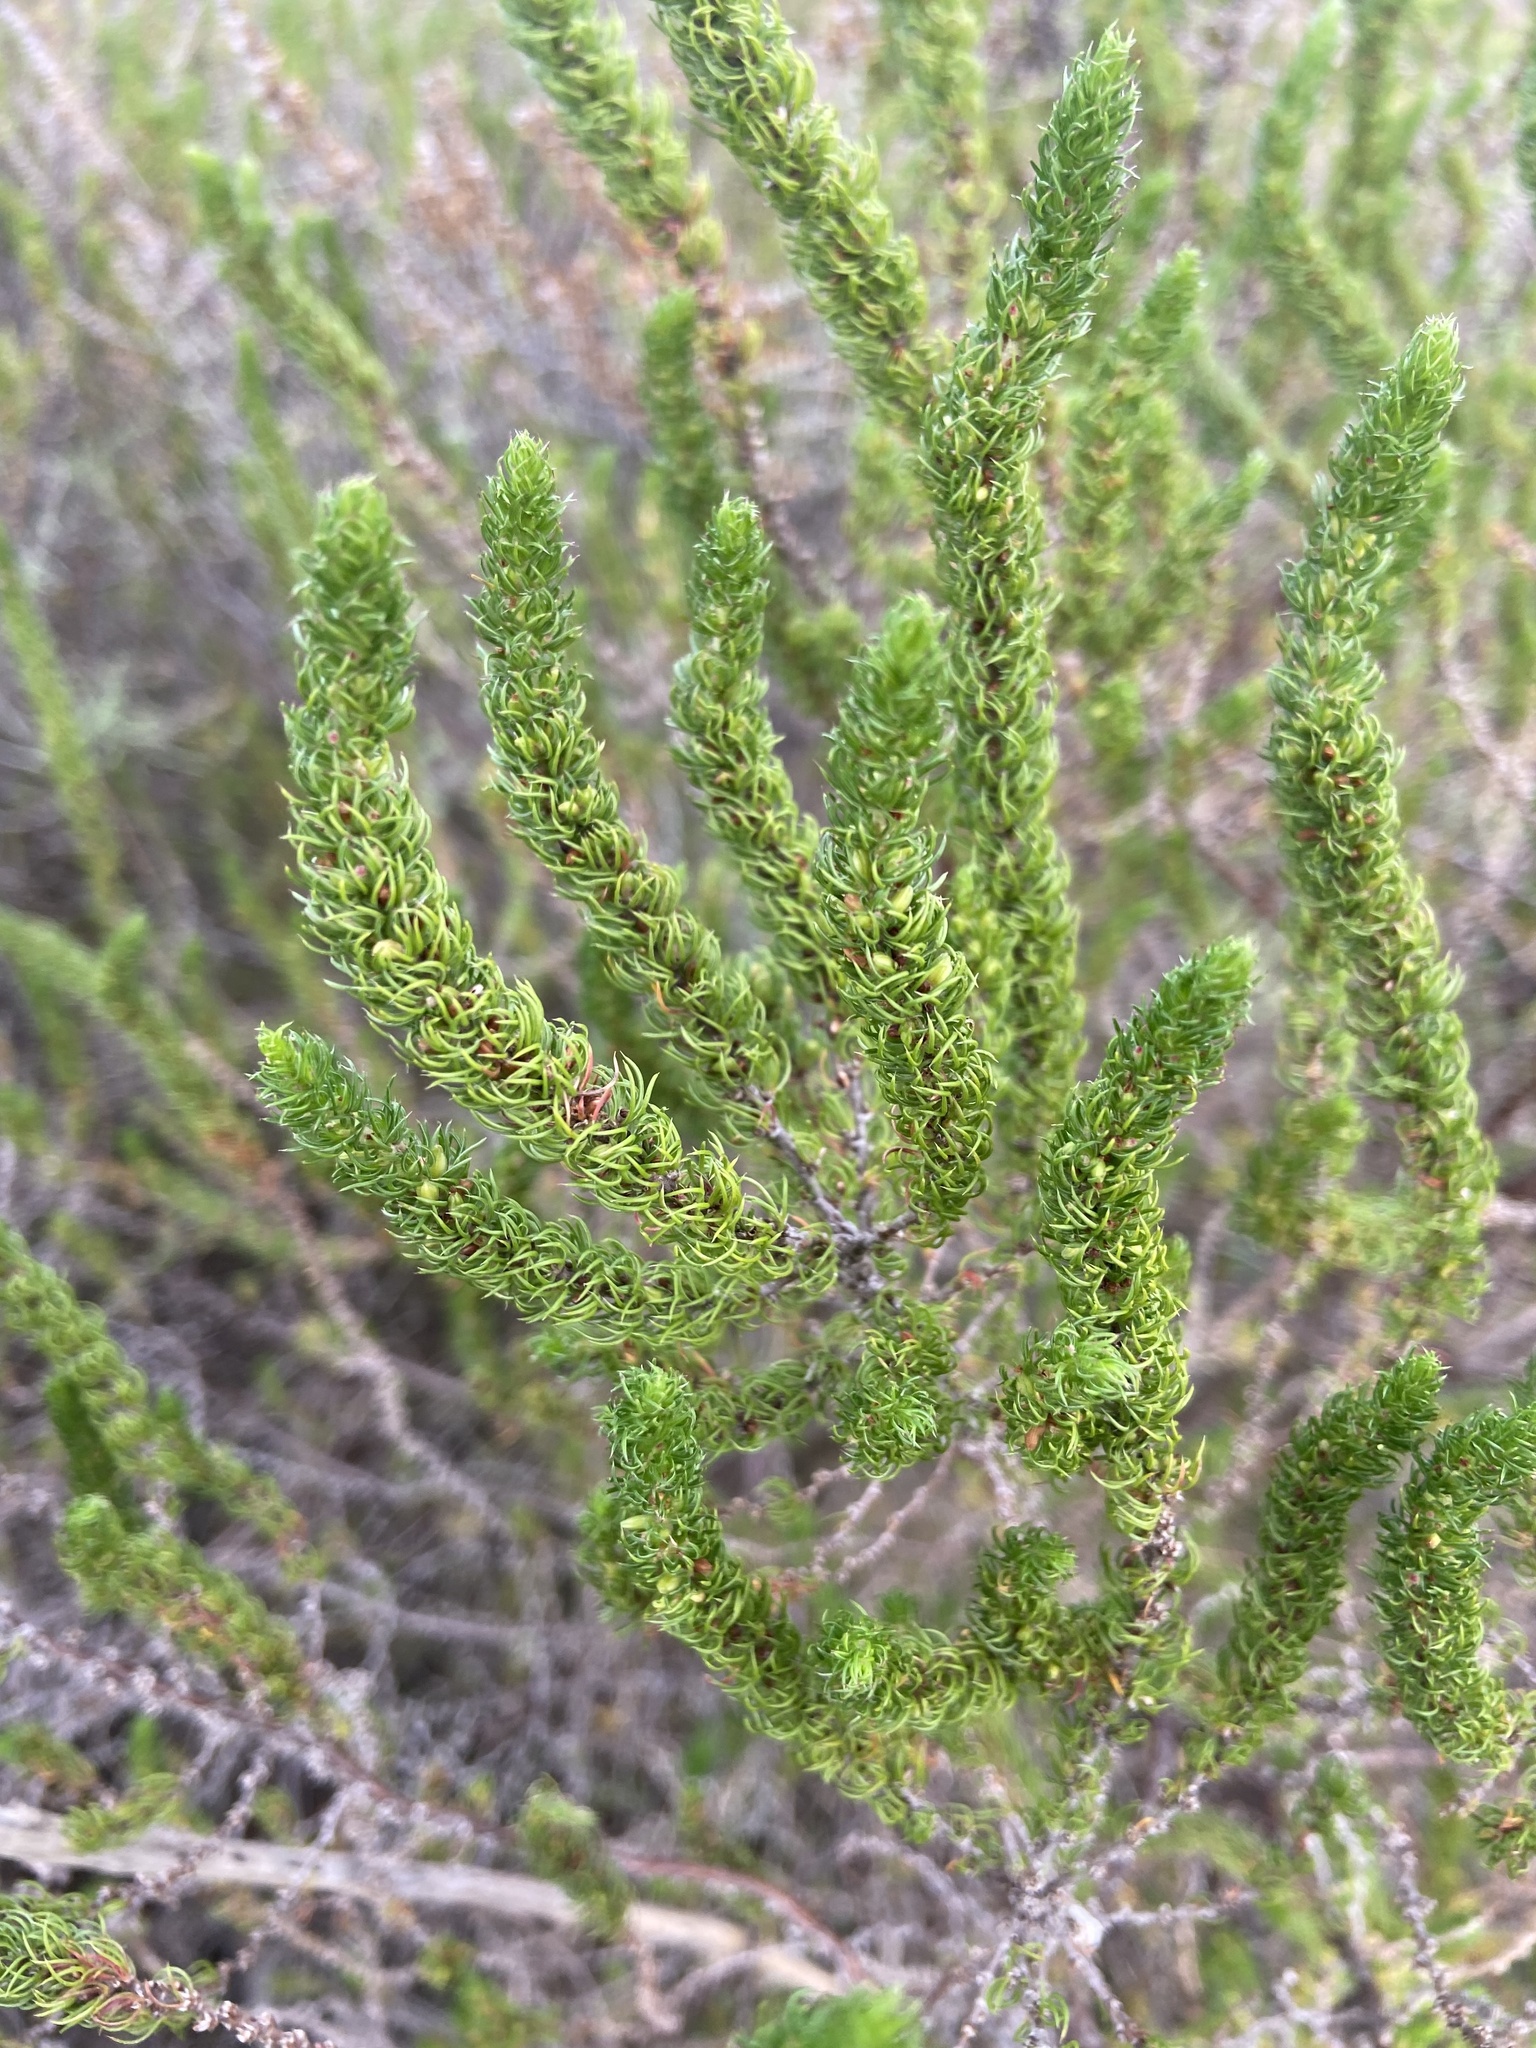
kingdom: Plantae
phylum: Tracheophyta
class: Magnoliopsida
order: Gentianales
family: Rubiaceae
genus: Anthospermum
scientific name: Anthospermum aethiopicum
